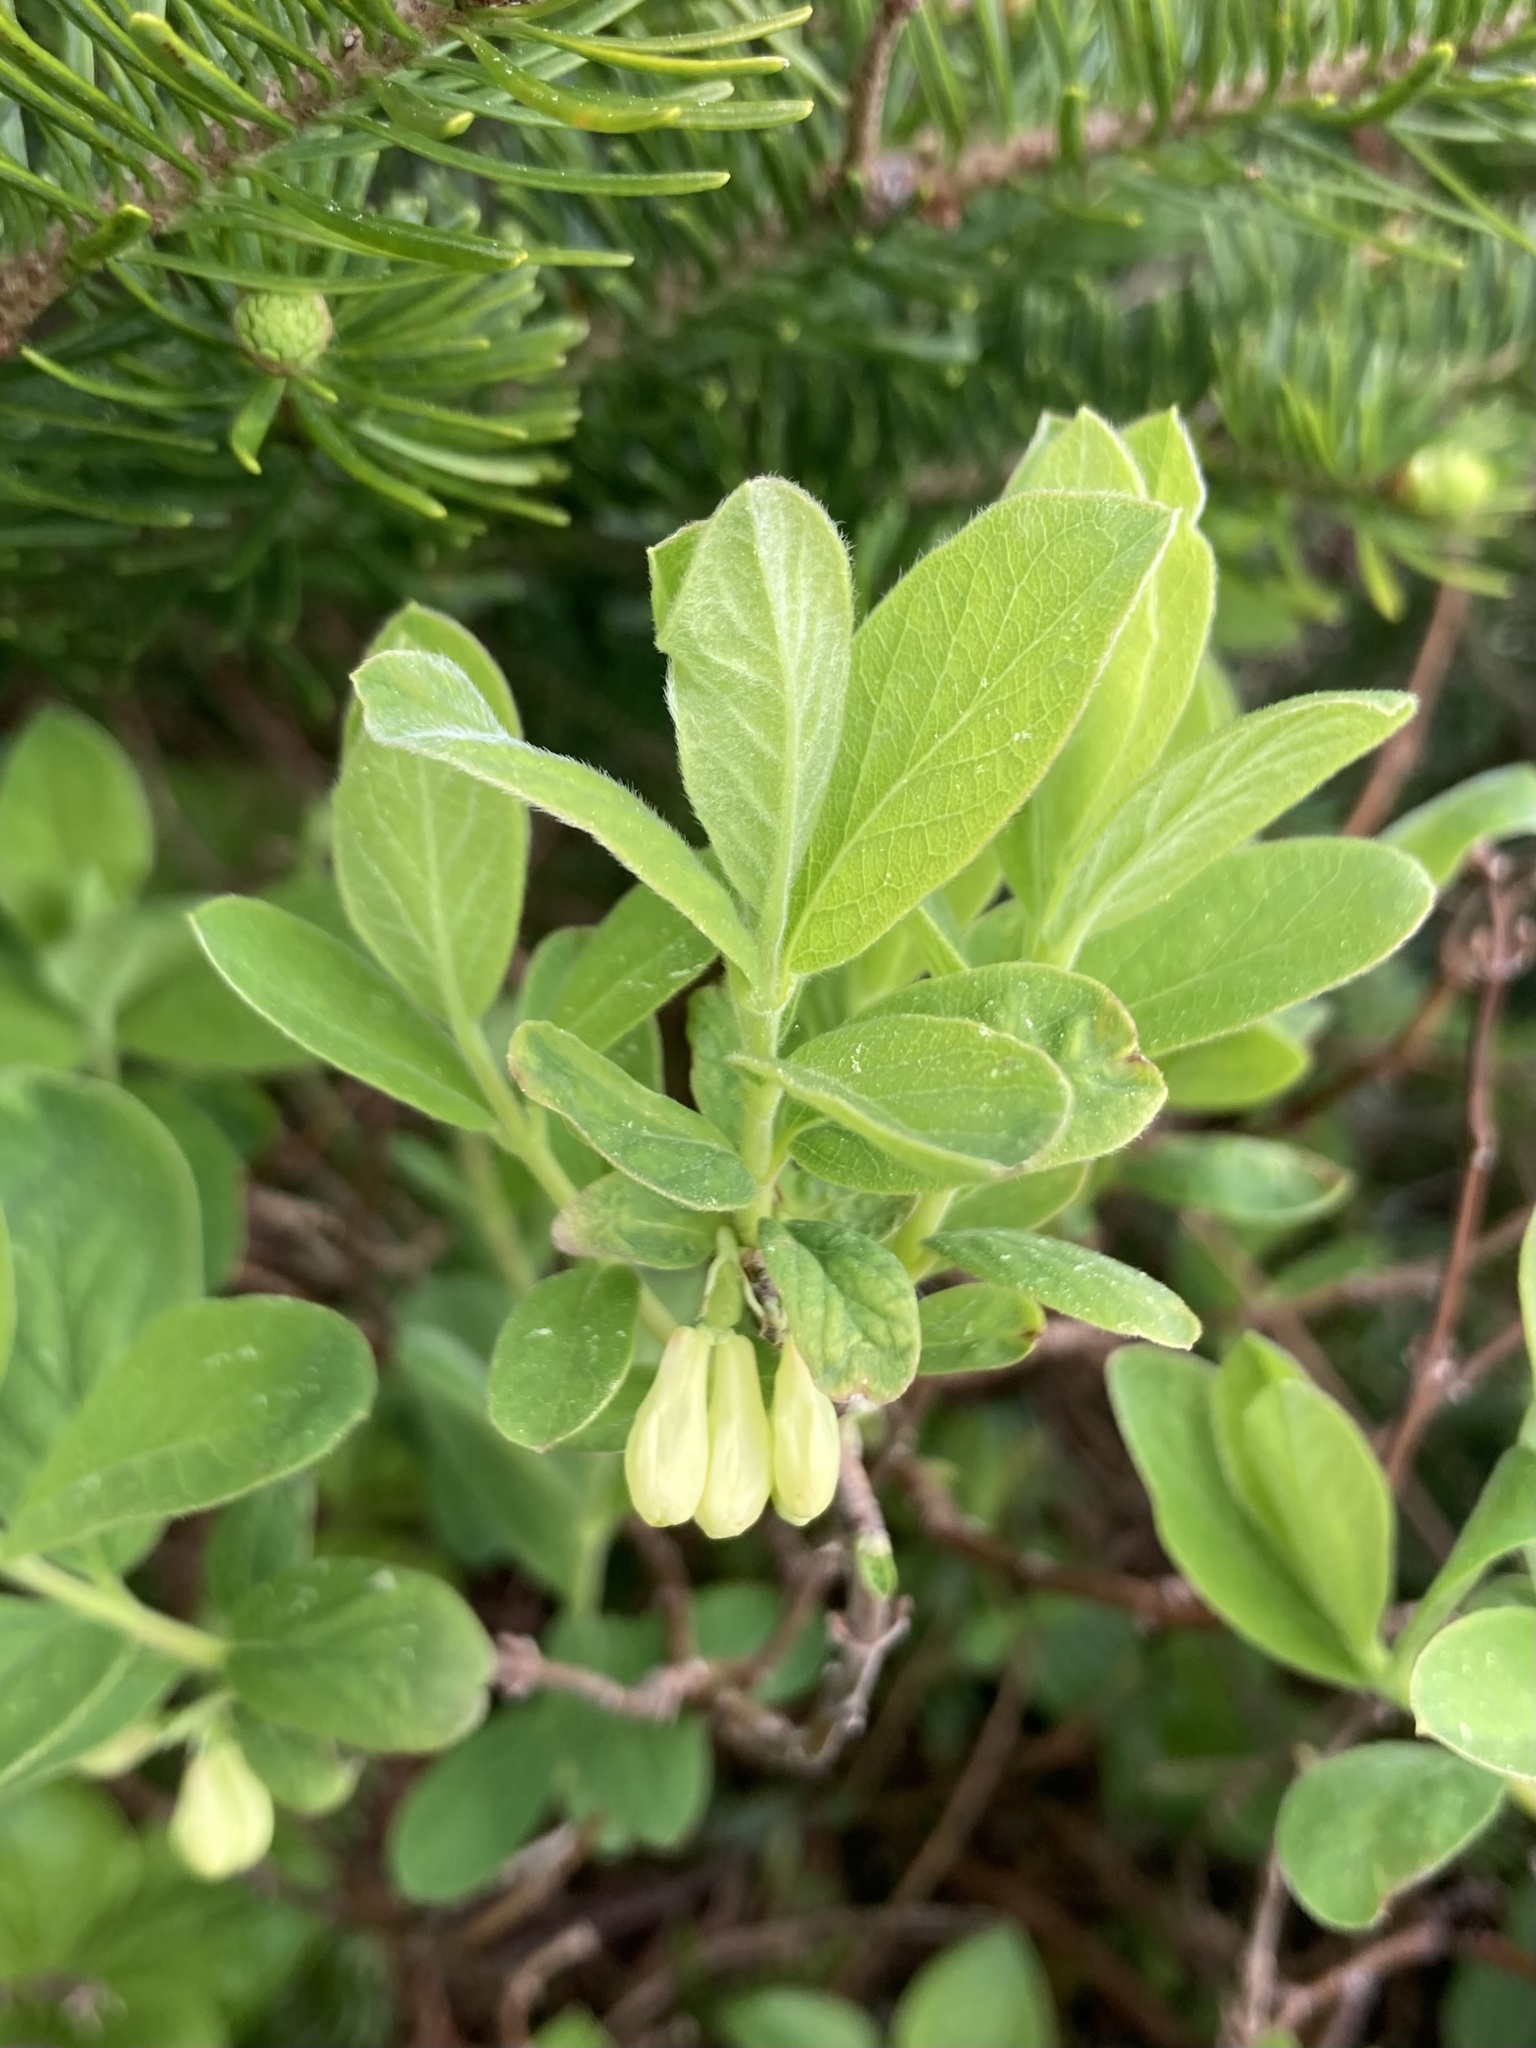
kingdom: Plantae
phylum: Tracheophyta
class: Magnoliopsida
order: Dipsacales
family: Caprifoliaceae
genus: Lonicera
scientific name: Lonicera villosa
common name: Mountain fly-honeysuckle
